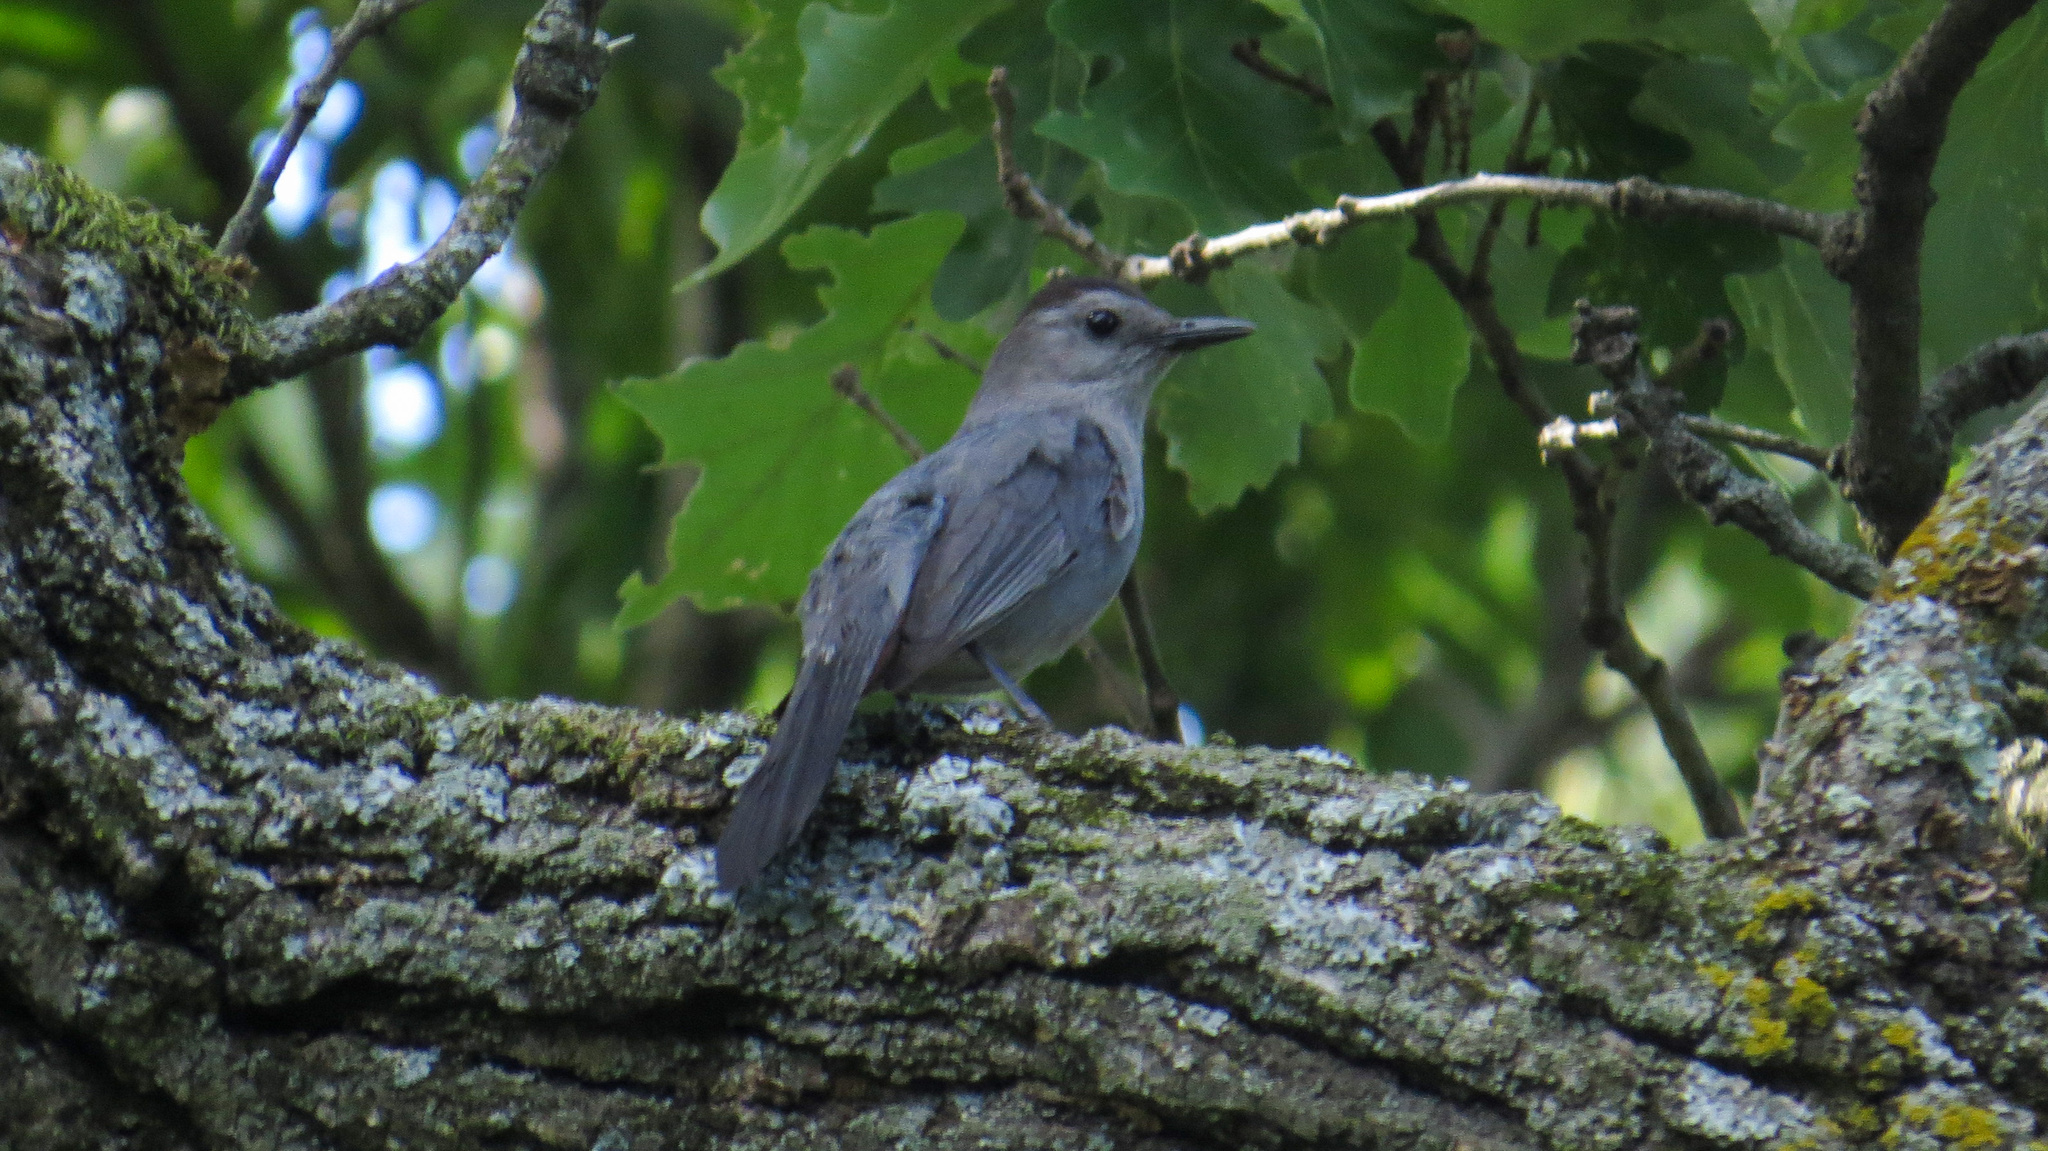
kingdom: Animalia
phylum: Chordata
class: Aves
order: Passeriformes
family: Mimidae
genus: Dumetella
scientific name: Dumetella carolinensis
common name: Gray catbird
